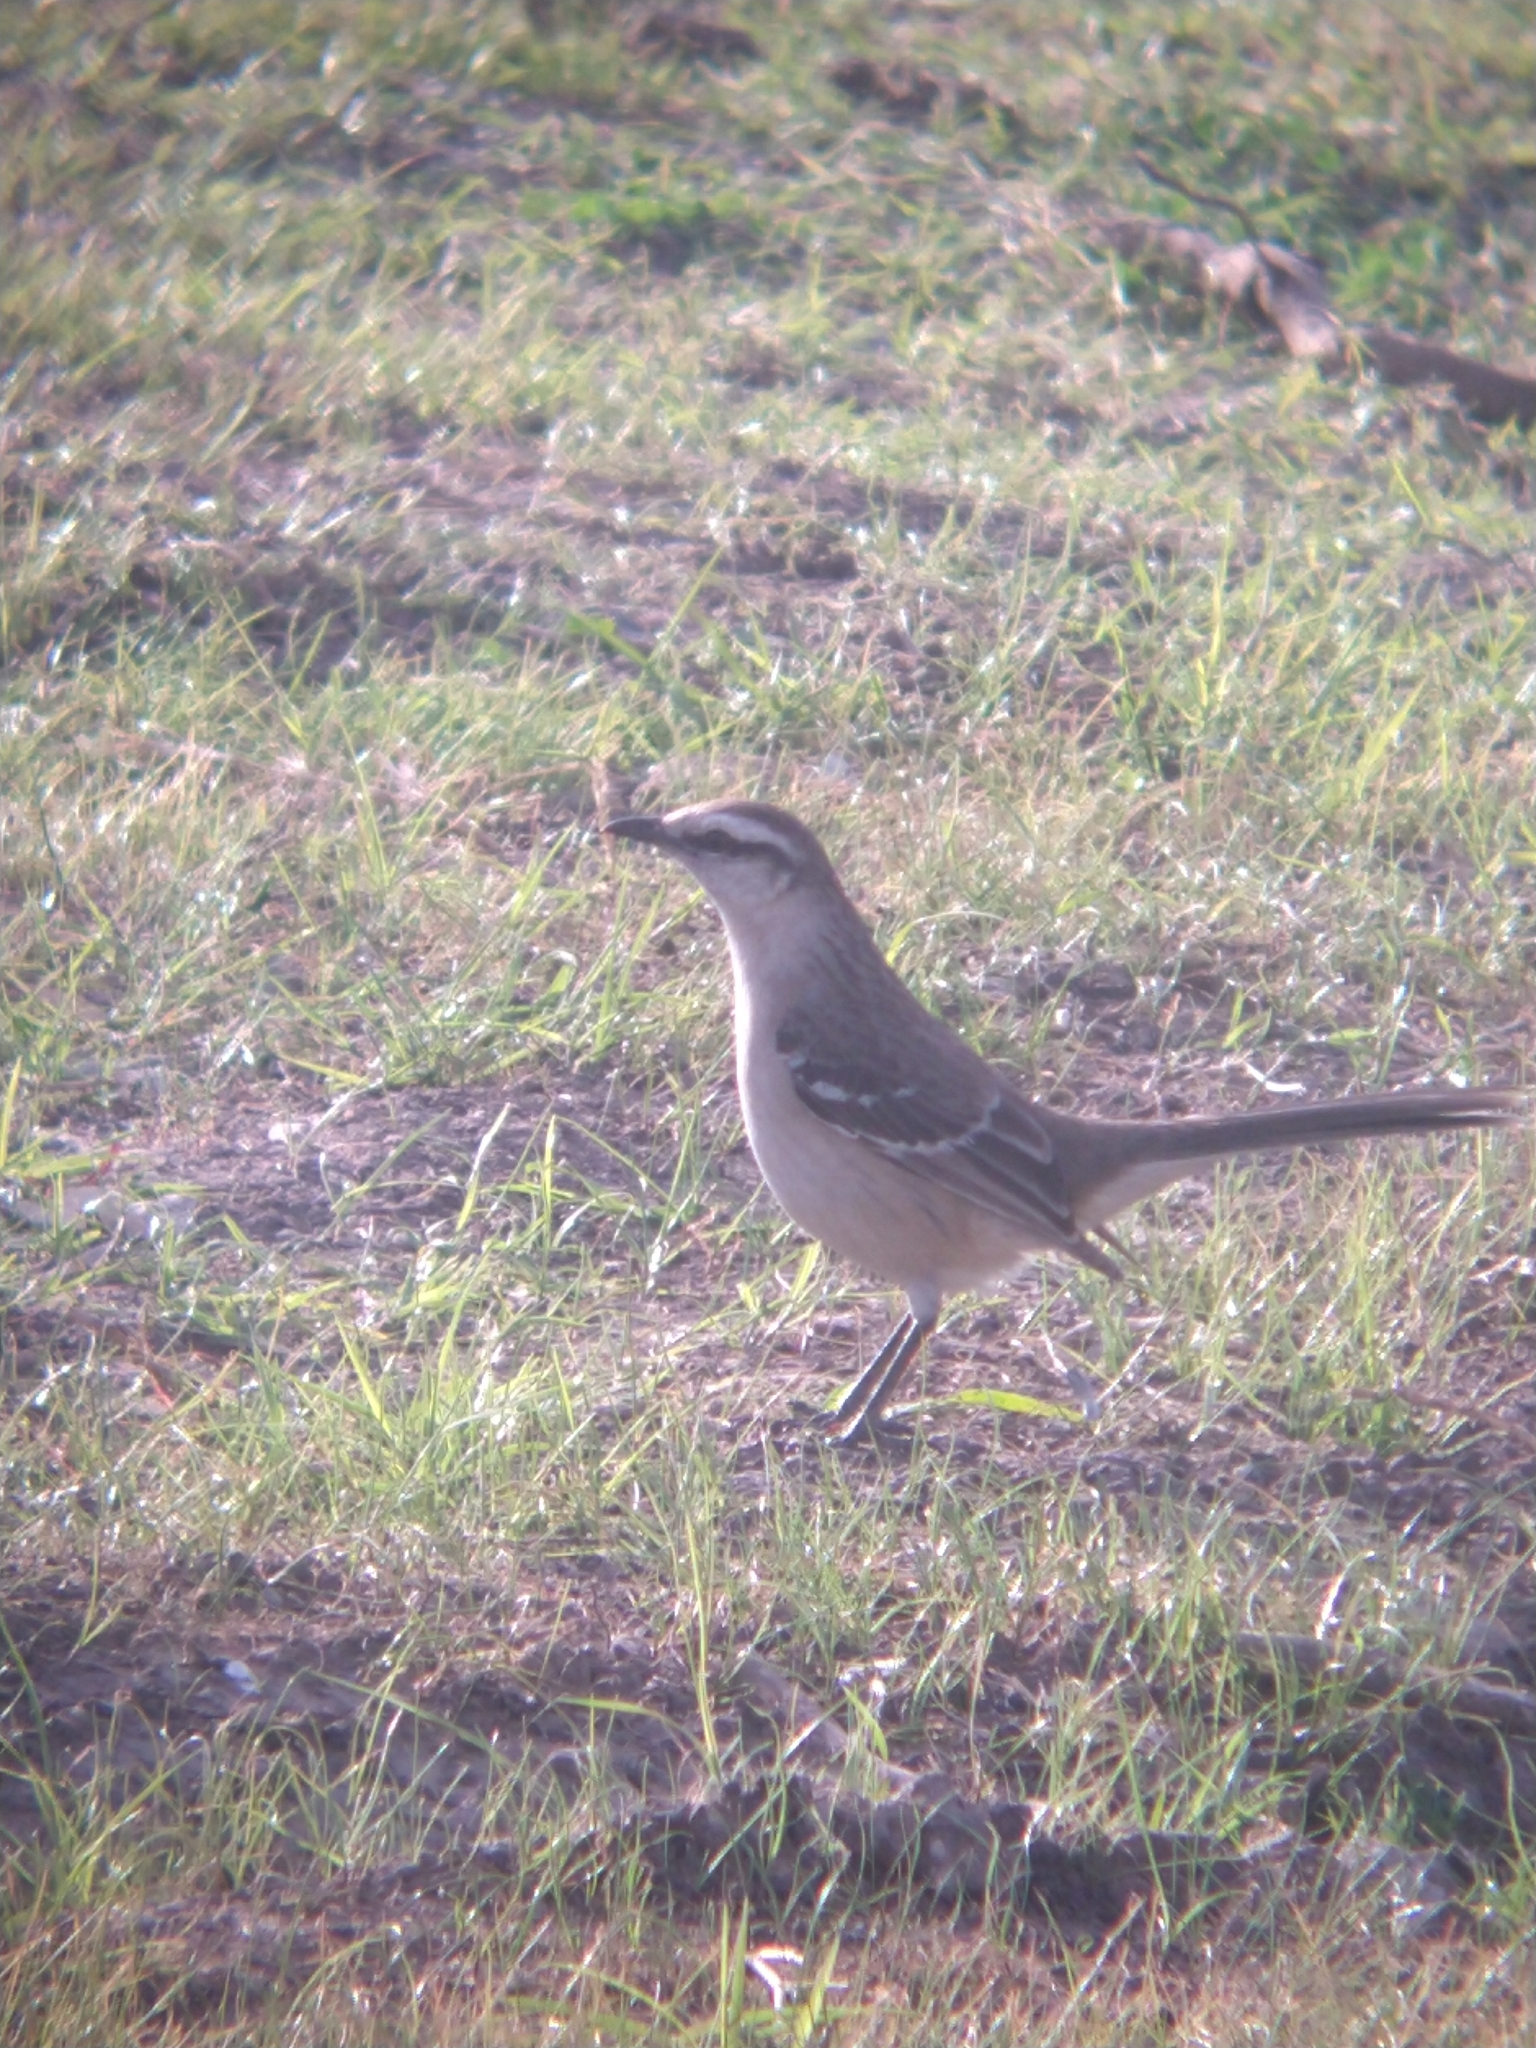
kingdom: Animalia
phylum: Chordata
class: Aves
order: Passeriformes
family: Mimidae
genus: Mimus
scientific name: Mimus saturninus
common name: Chalk-browed mockingbird
